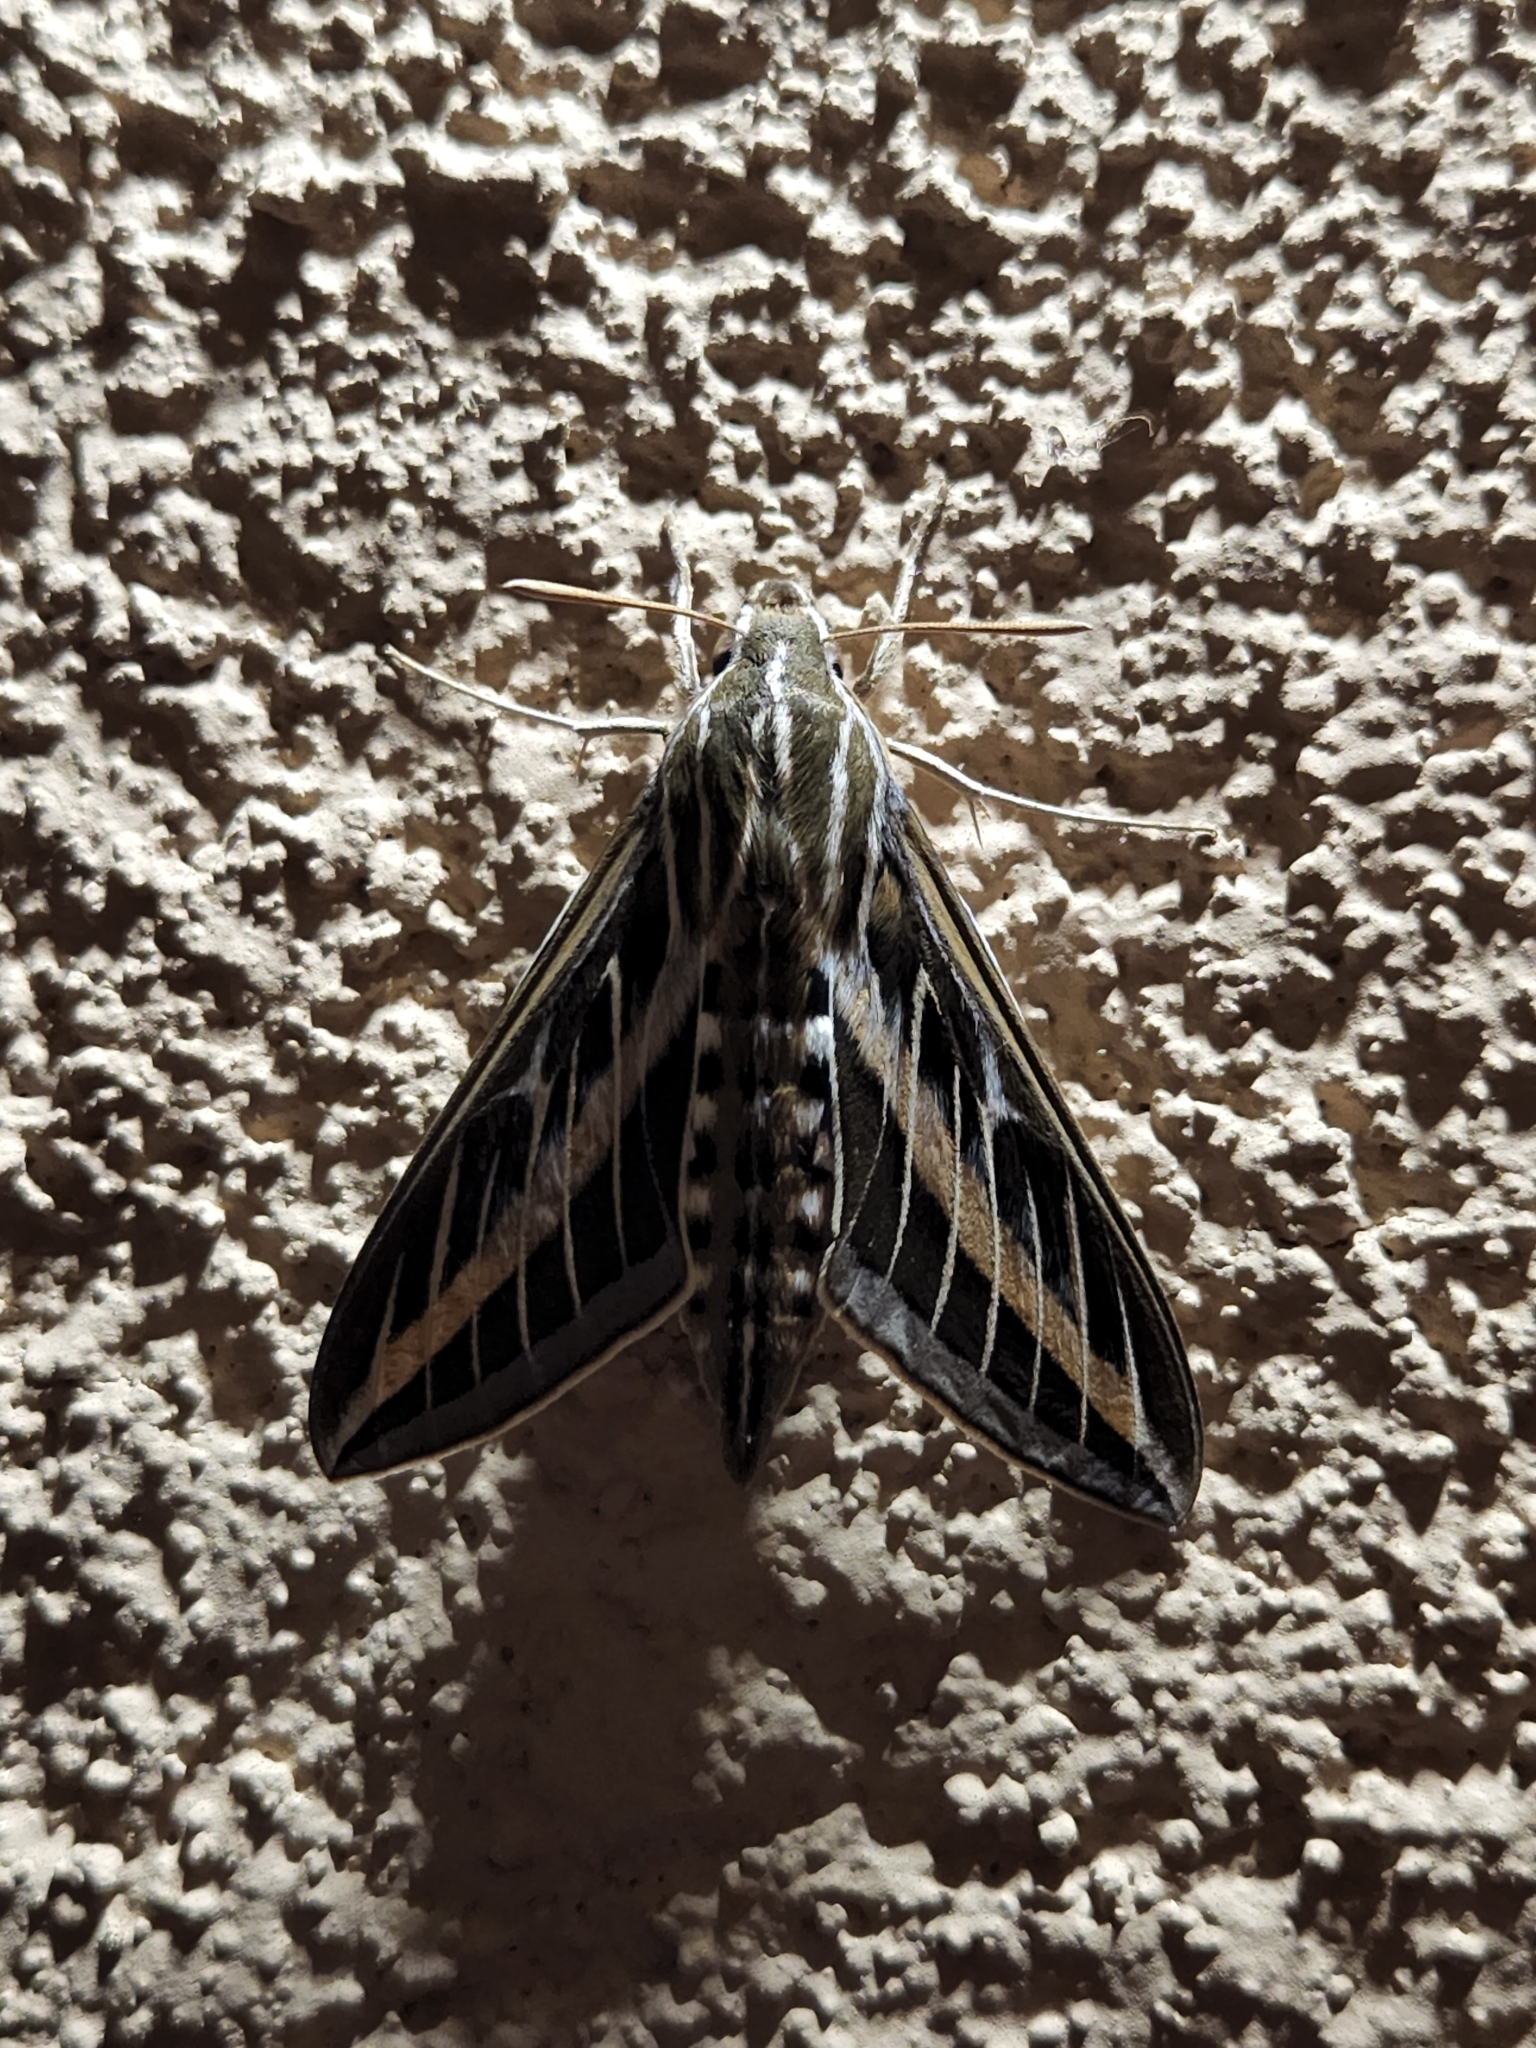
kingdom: Animalia
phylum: Arthropoda
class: Insecta
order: Lepidoptera
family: Sphingidae
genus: Hyles
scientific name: Hyles lineata
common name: White-lined sphinx
